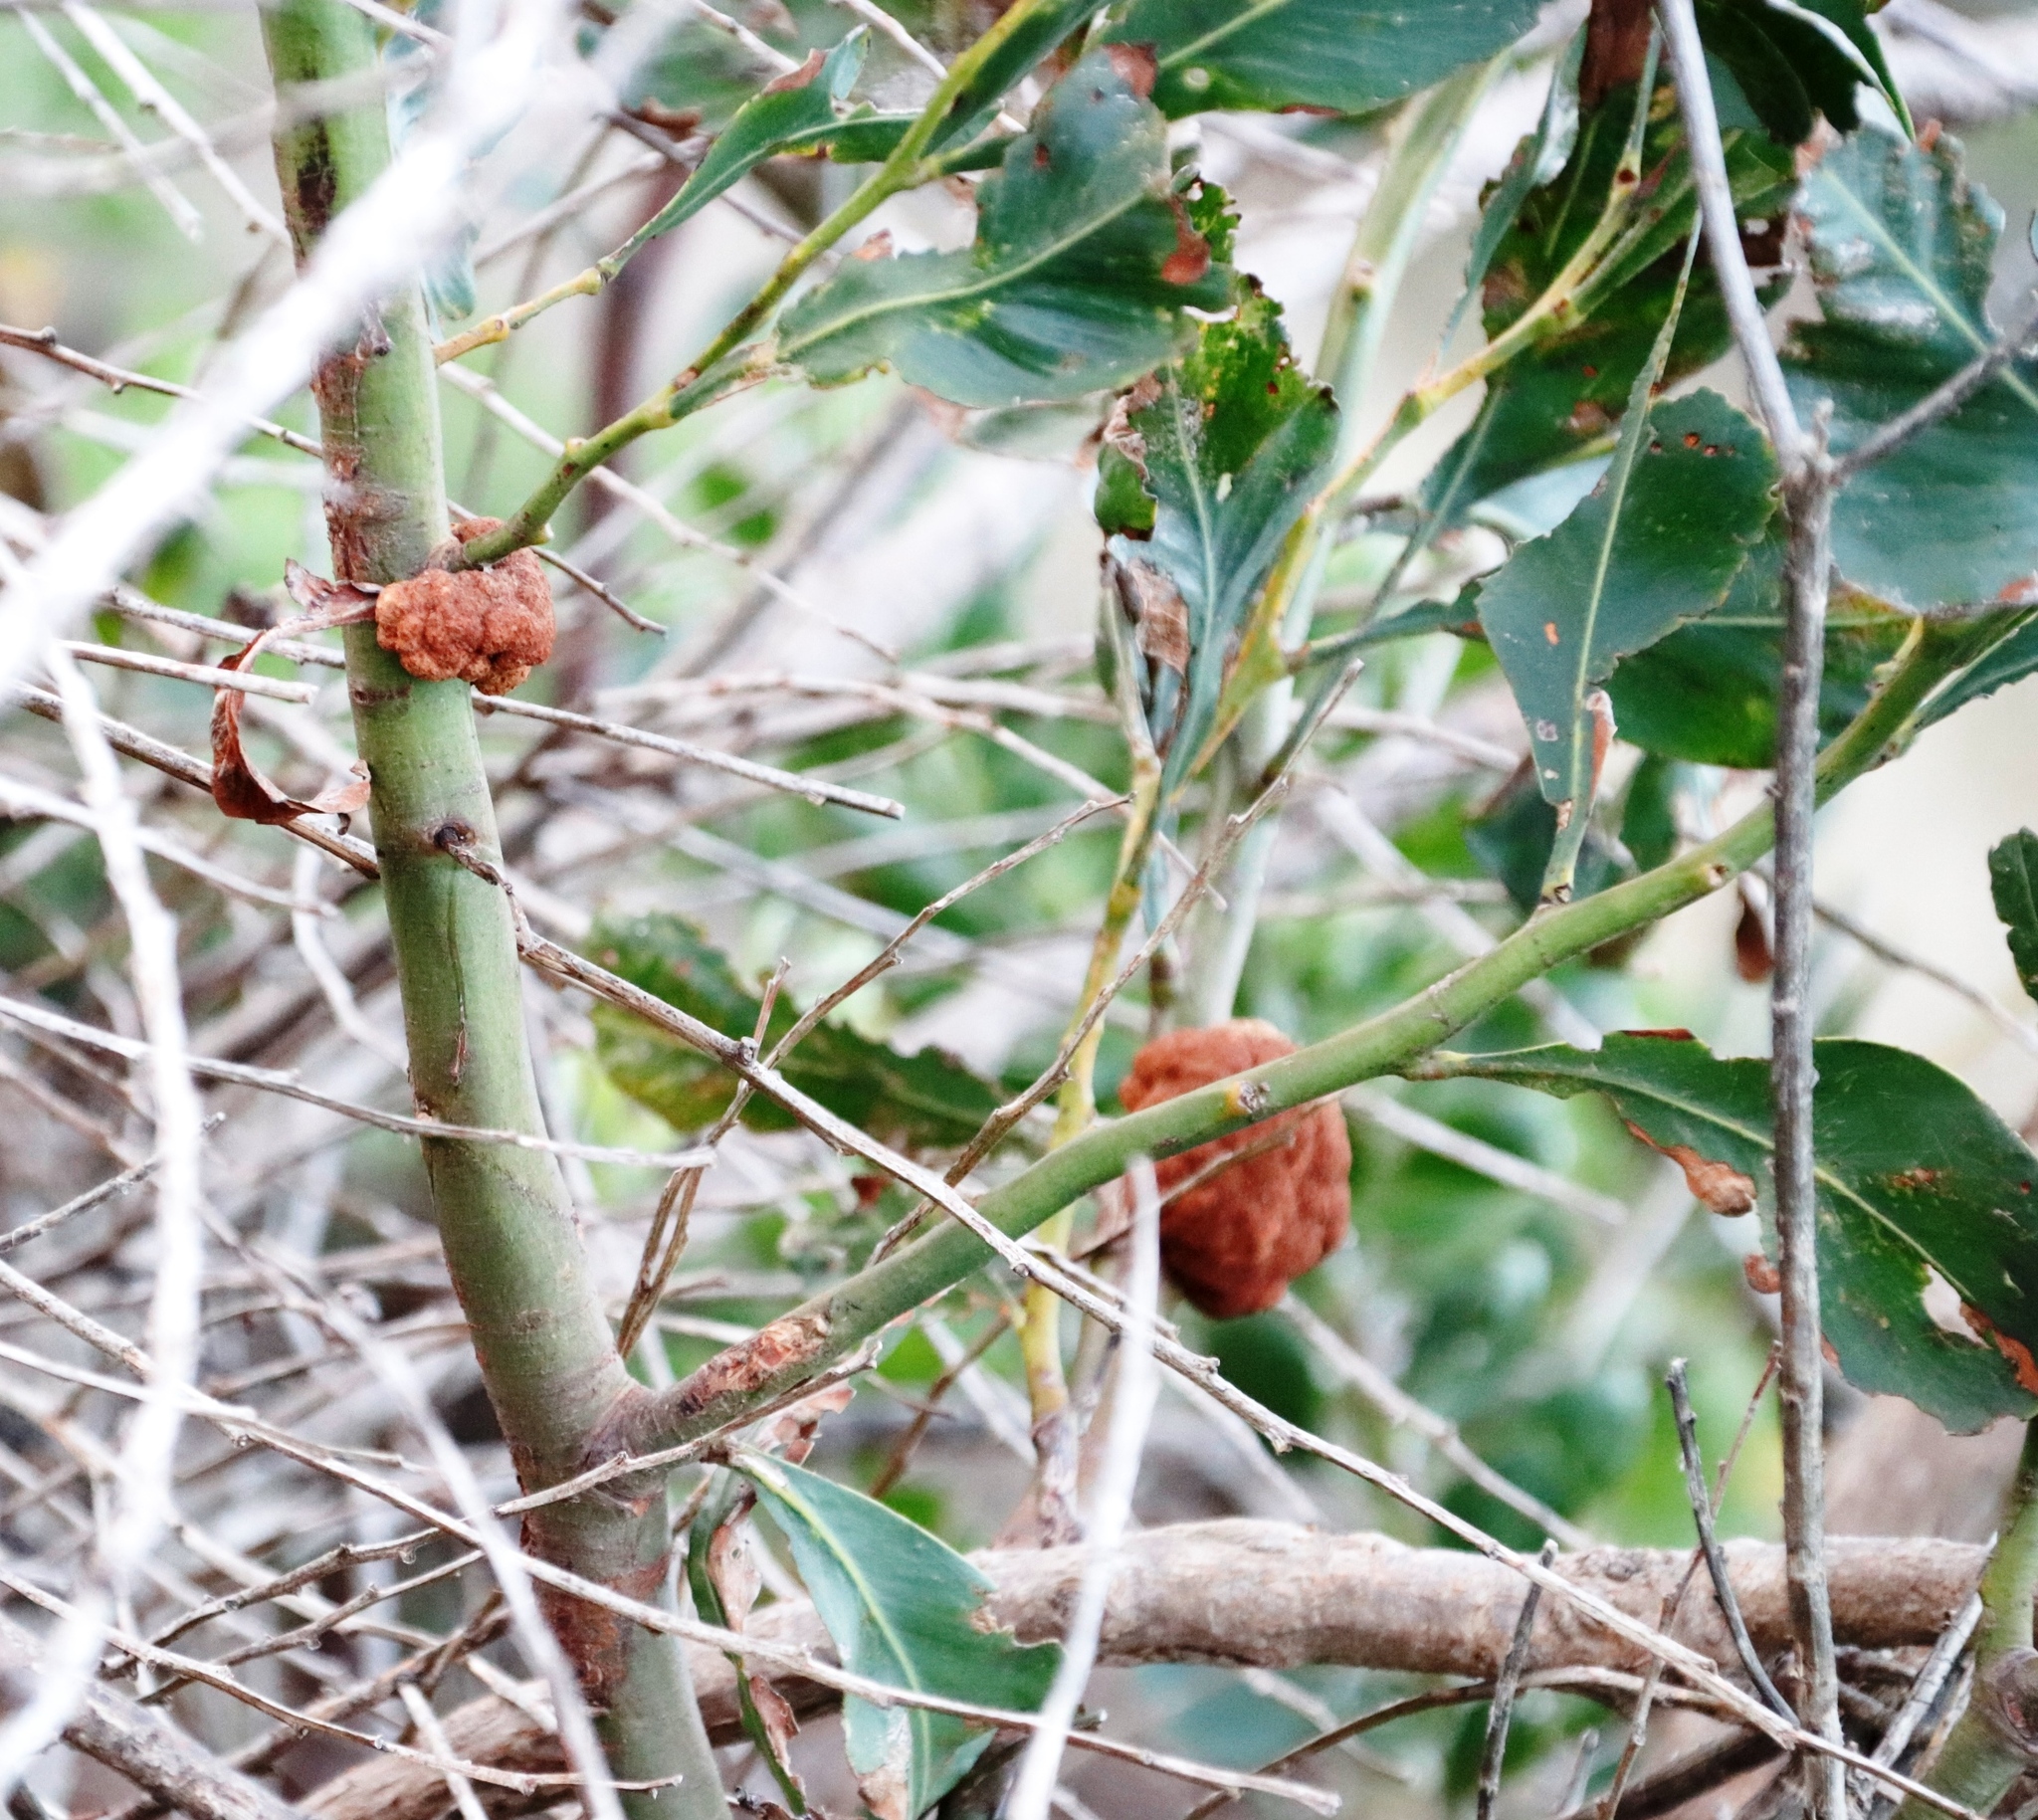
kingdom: Fungi
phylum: Basidiomycota
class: Pucciniomycetes
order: Pucciniales
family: Uromycladiaceae
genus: Uromycladium
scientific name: Uromycladium morrisii
